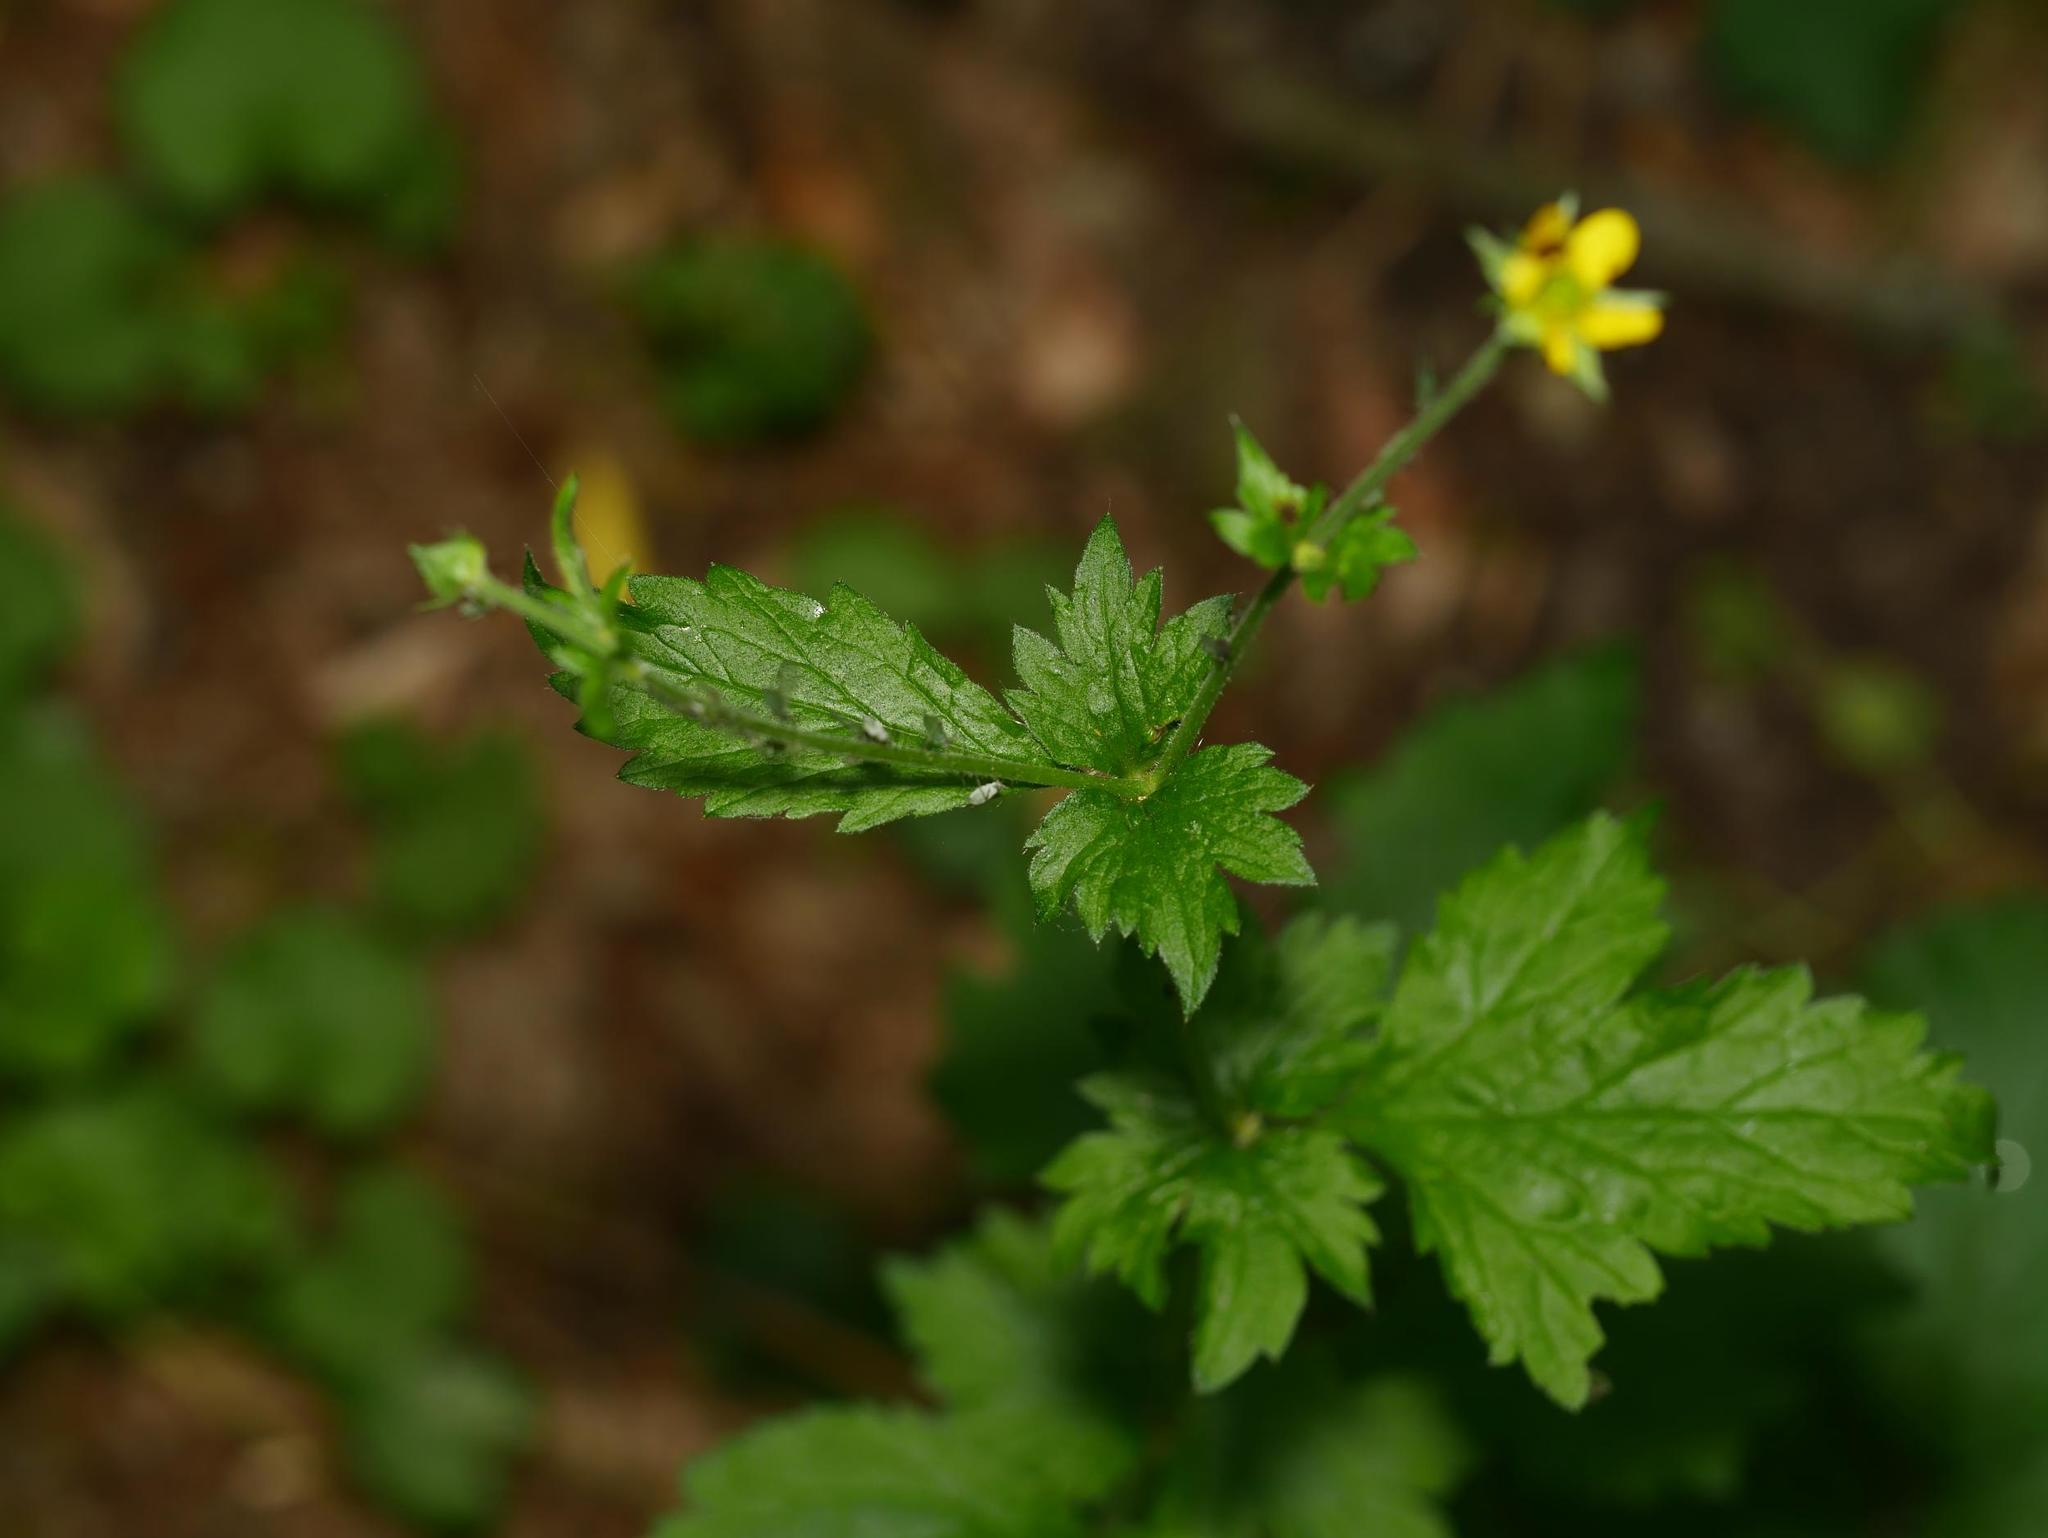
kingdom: Plantae
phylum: Tracheophyta
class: Magnoliopsida
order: Rosales
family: Rosaceae
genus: Geum
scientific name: Geum urbanum
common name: Wood avens
